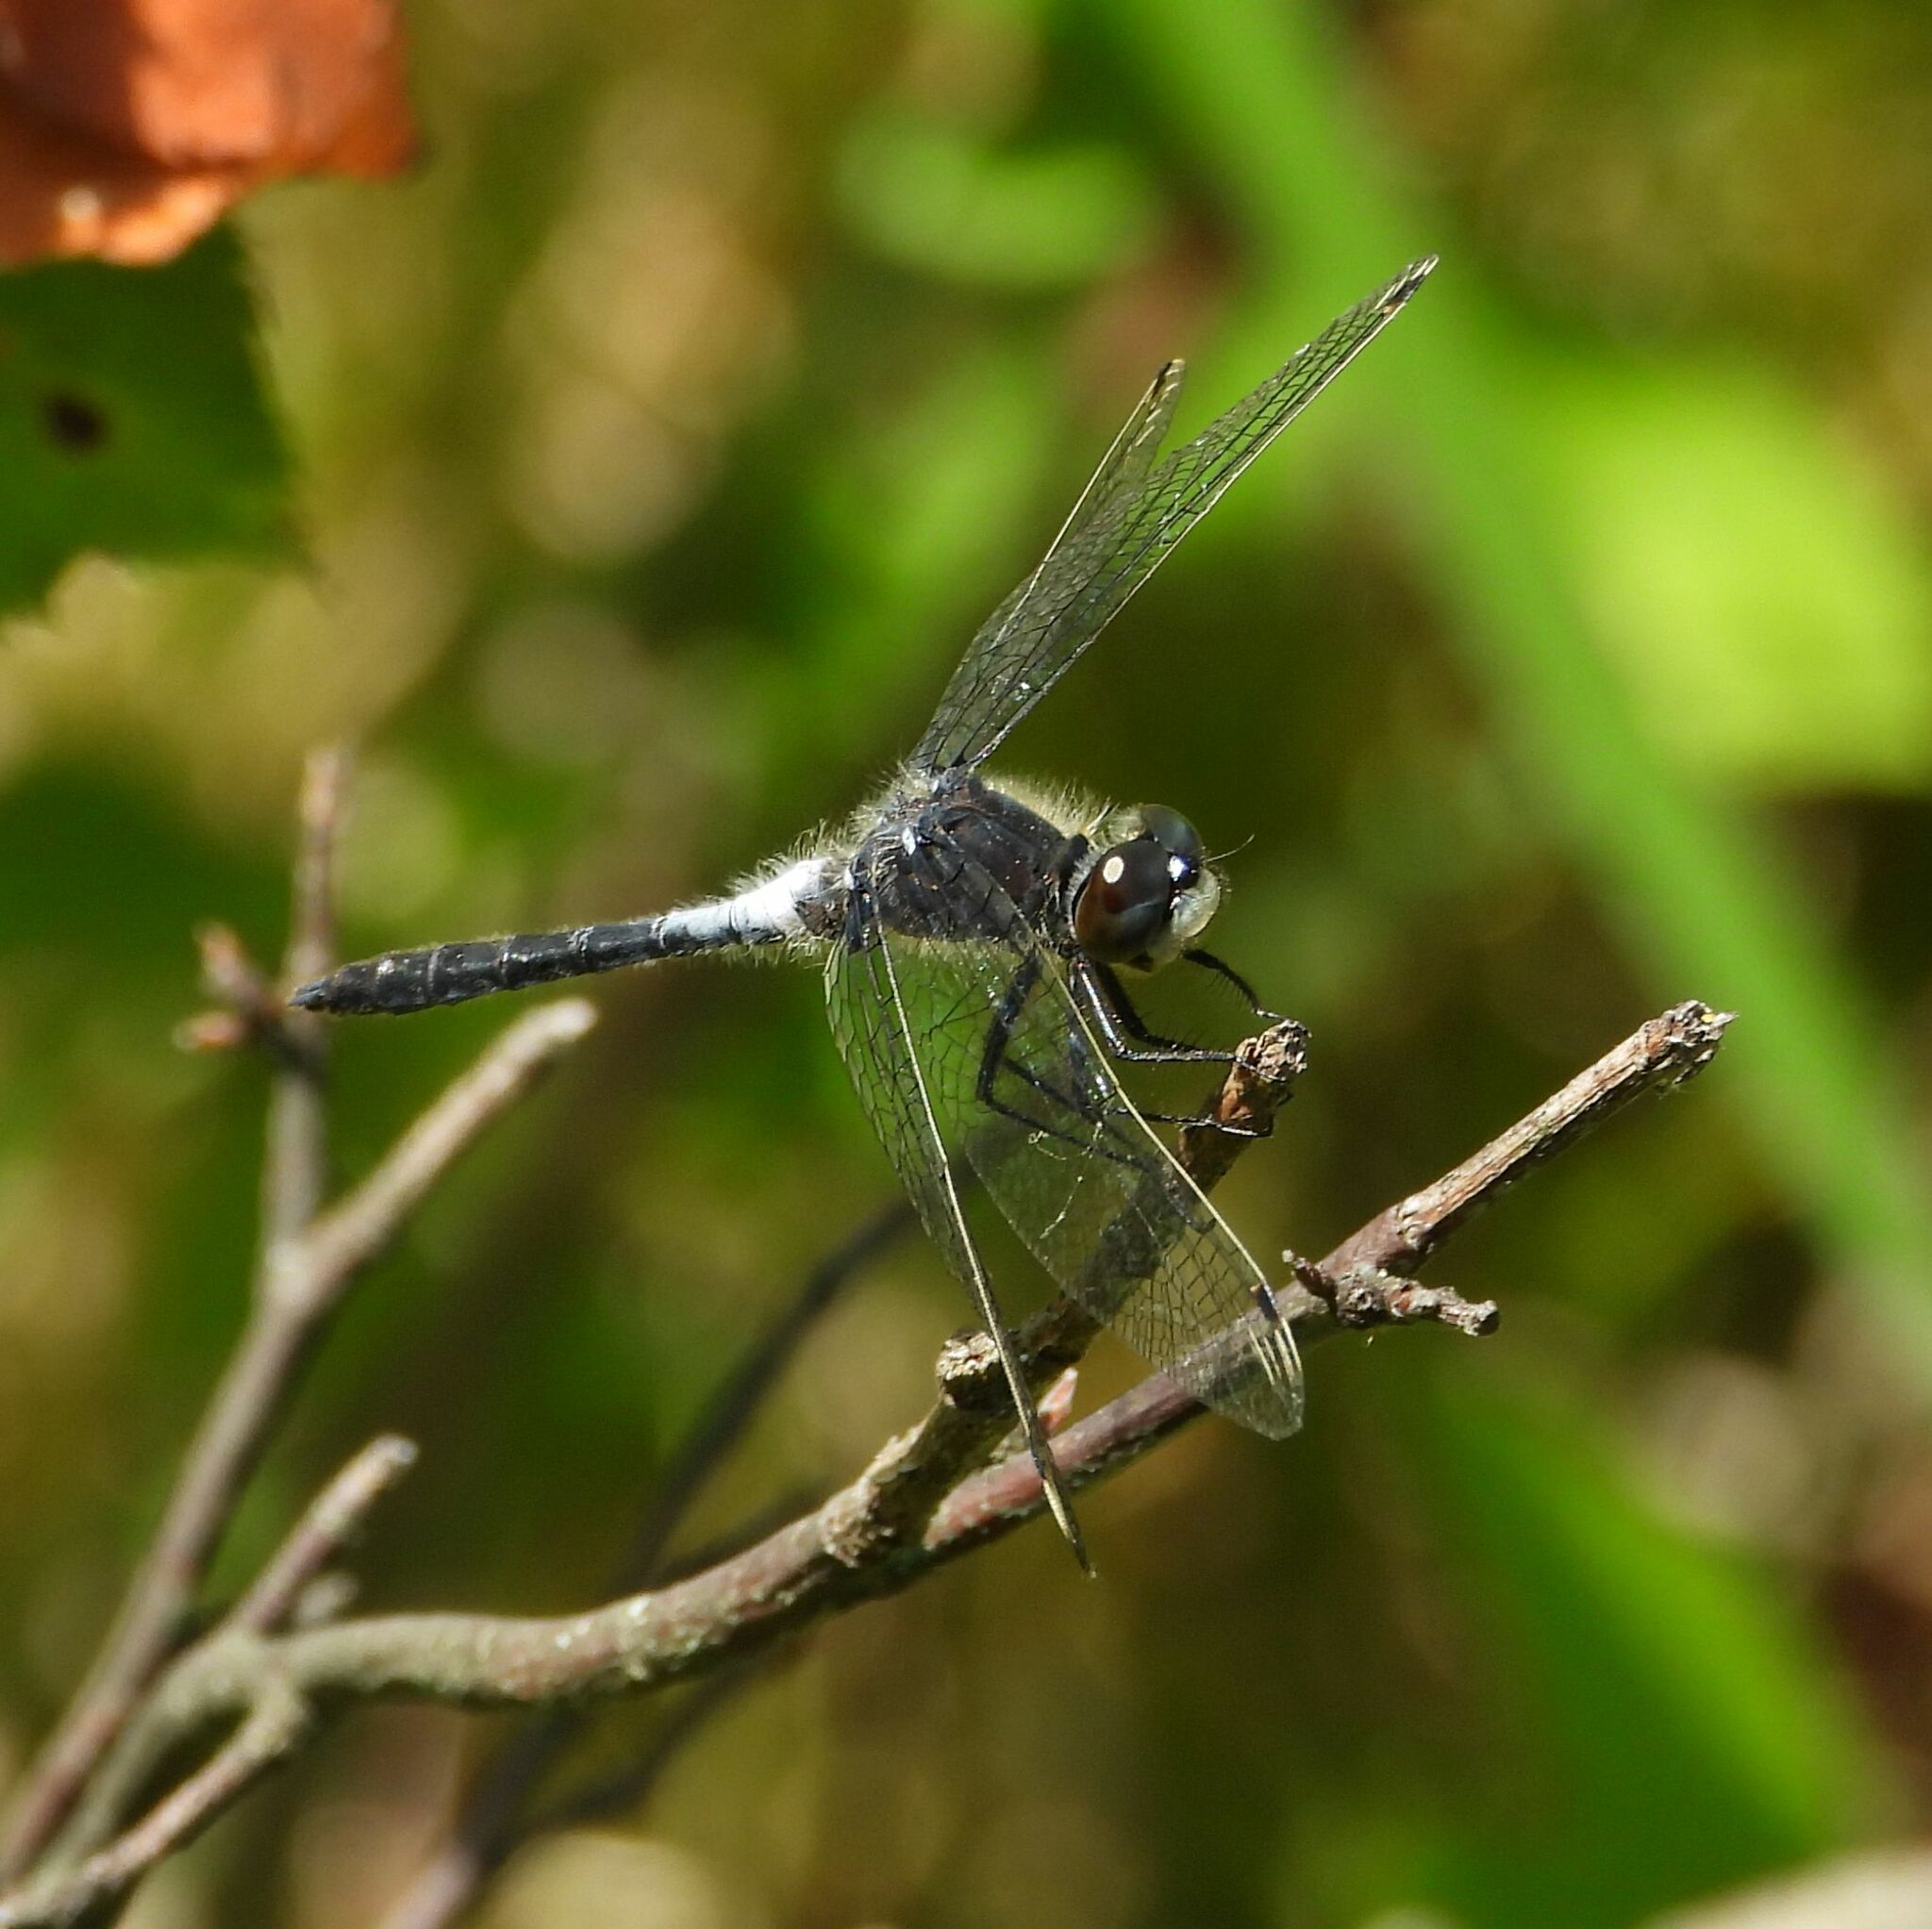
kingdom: Animalia
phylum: Arthropoda
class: Insecta
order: Odonata
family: Libellulidae
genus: Leucorrhinia
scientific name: Leucorrhinia frigida
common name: Frosted whiteface
